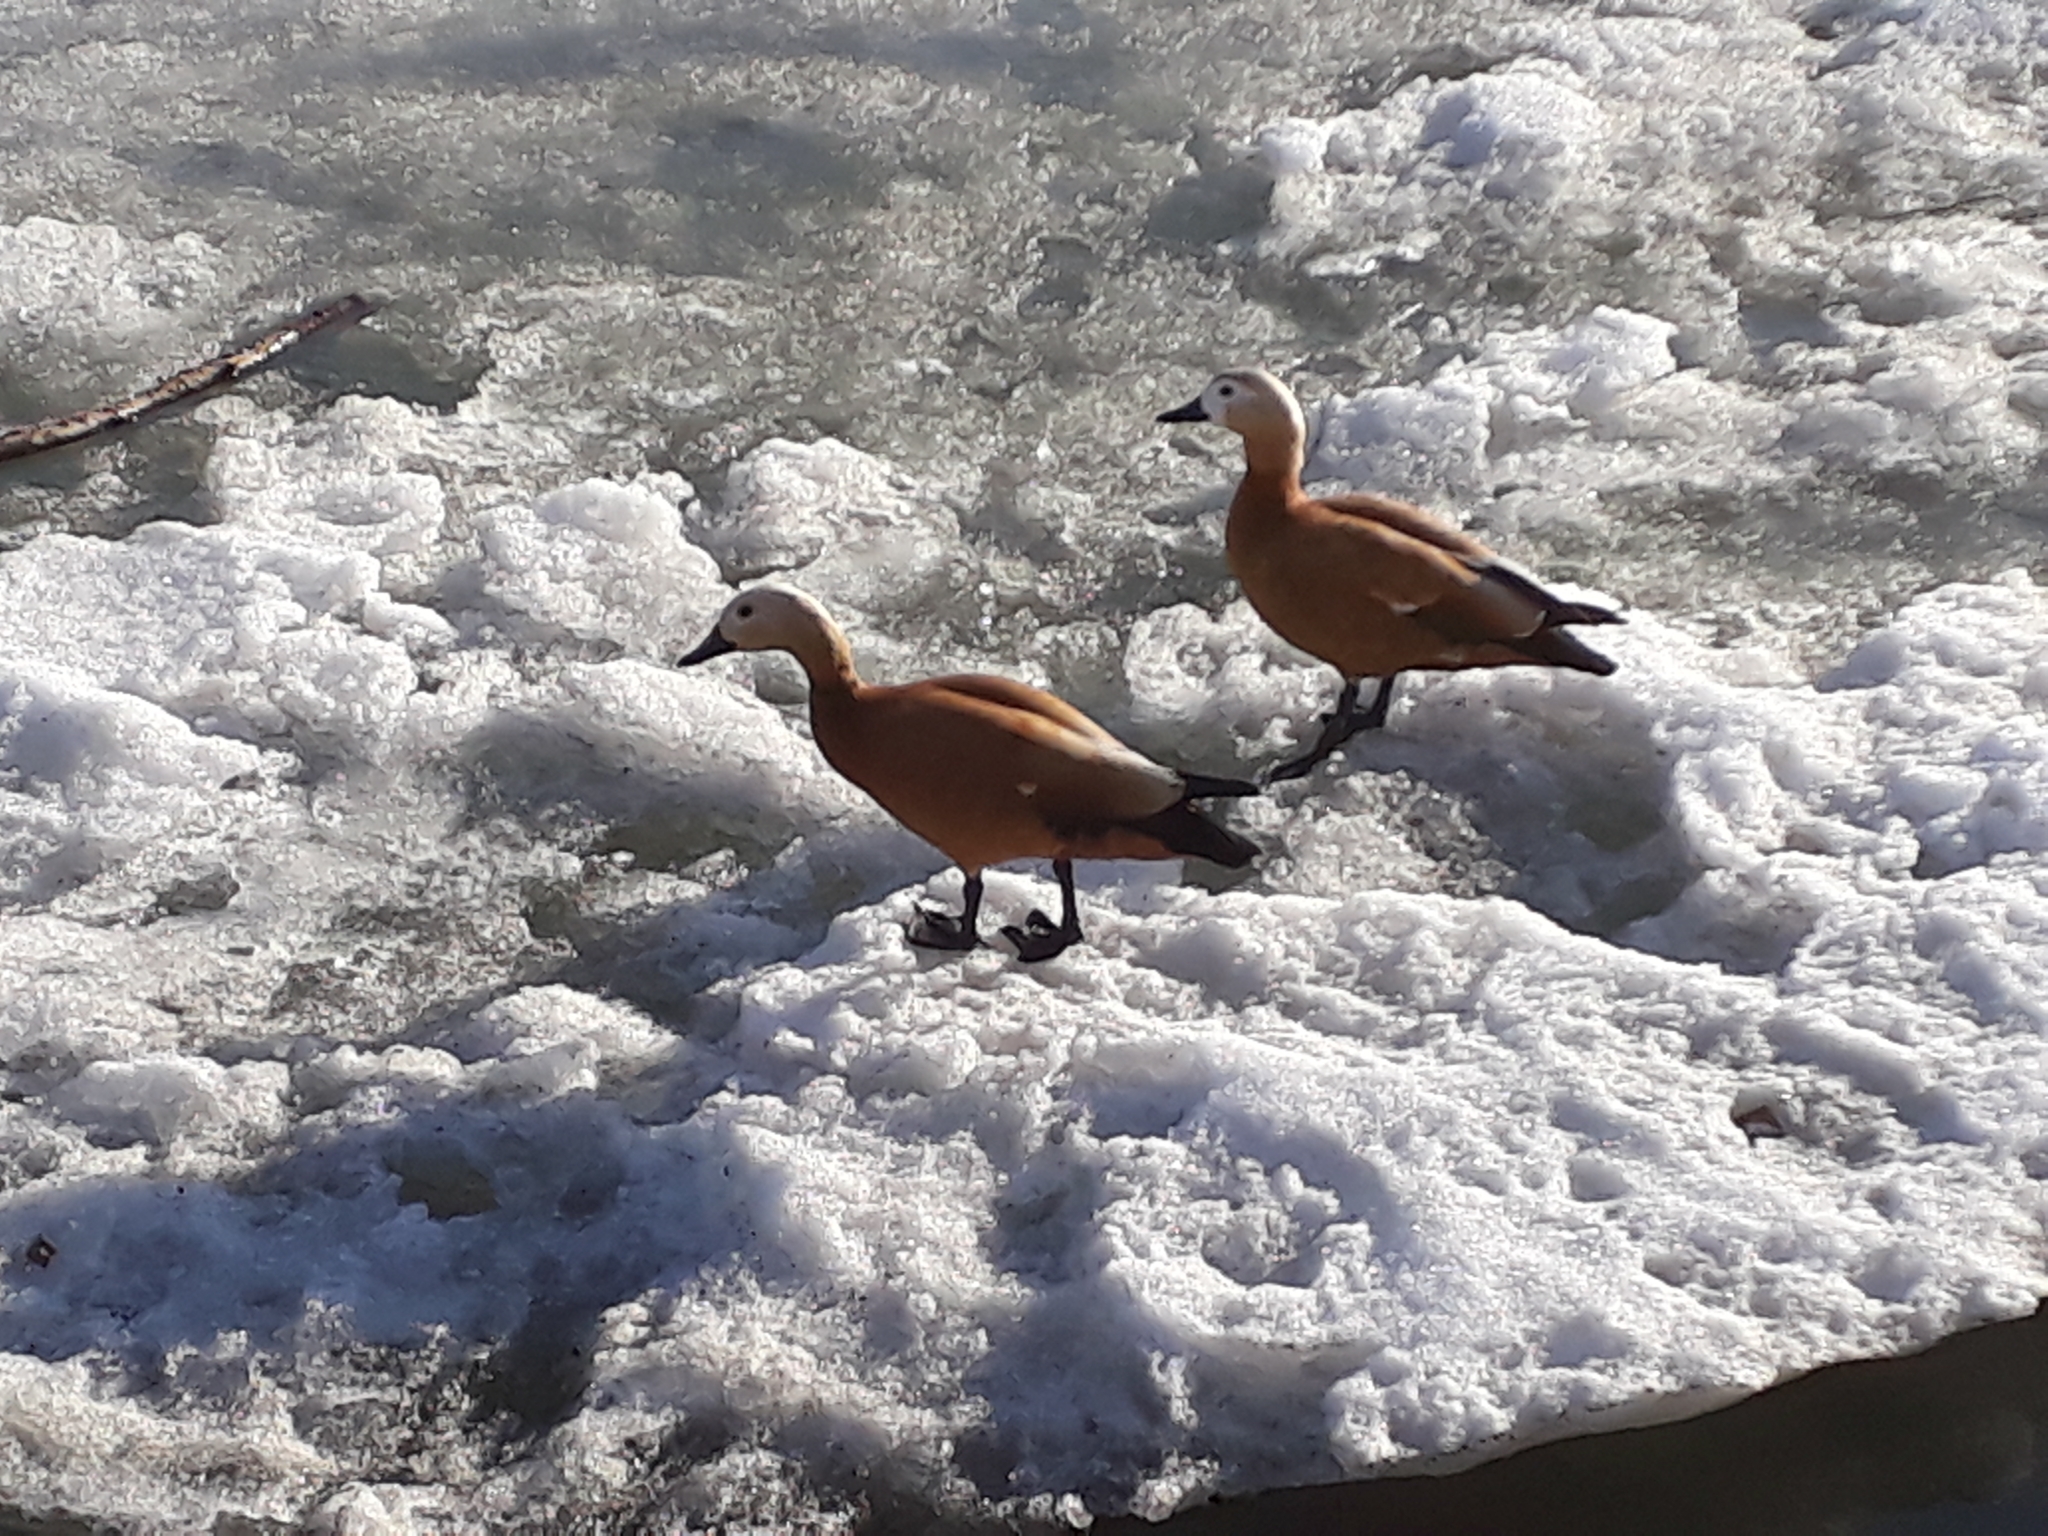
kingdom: Animalia
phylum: Chordata
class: Aves
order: Anseriformes
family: Anatidae
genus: Tadorna
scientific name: Tadorna ferruginea
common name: Ruddy shelduck
